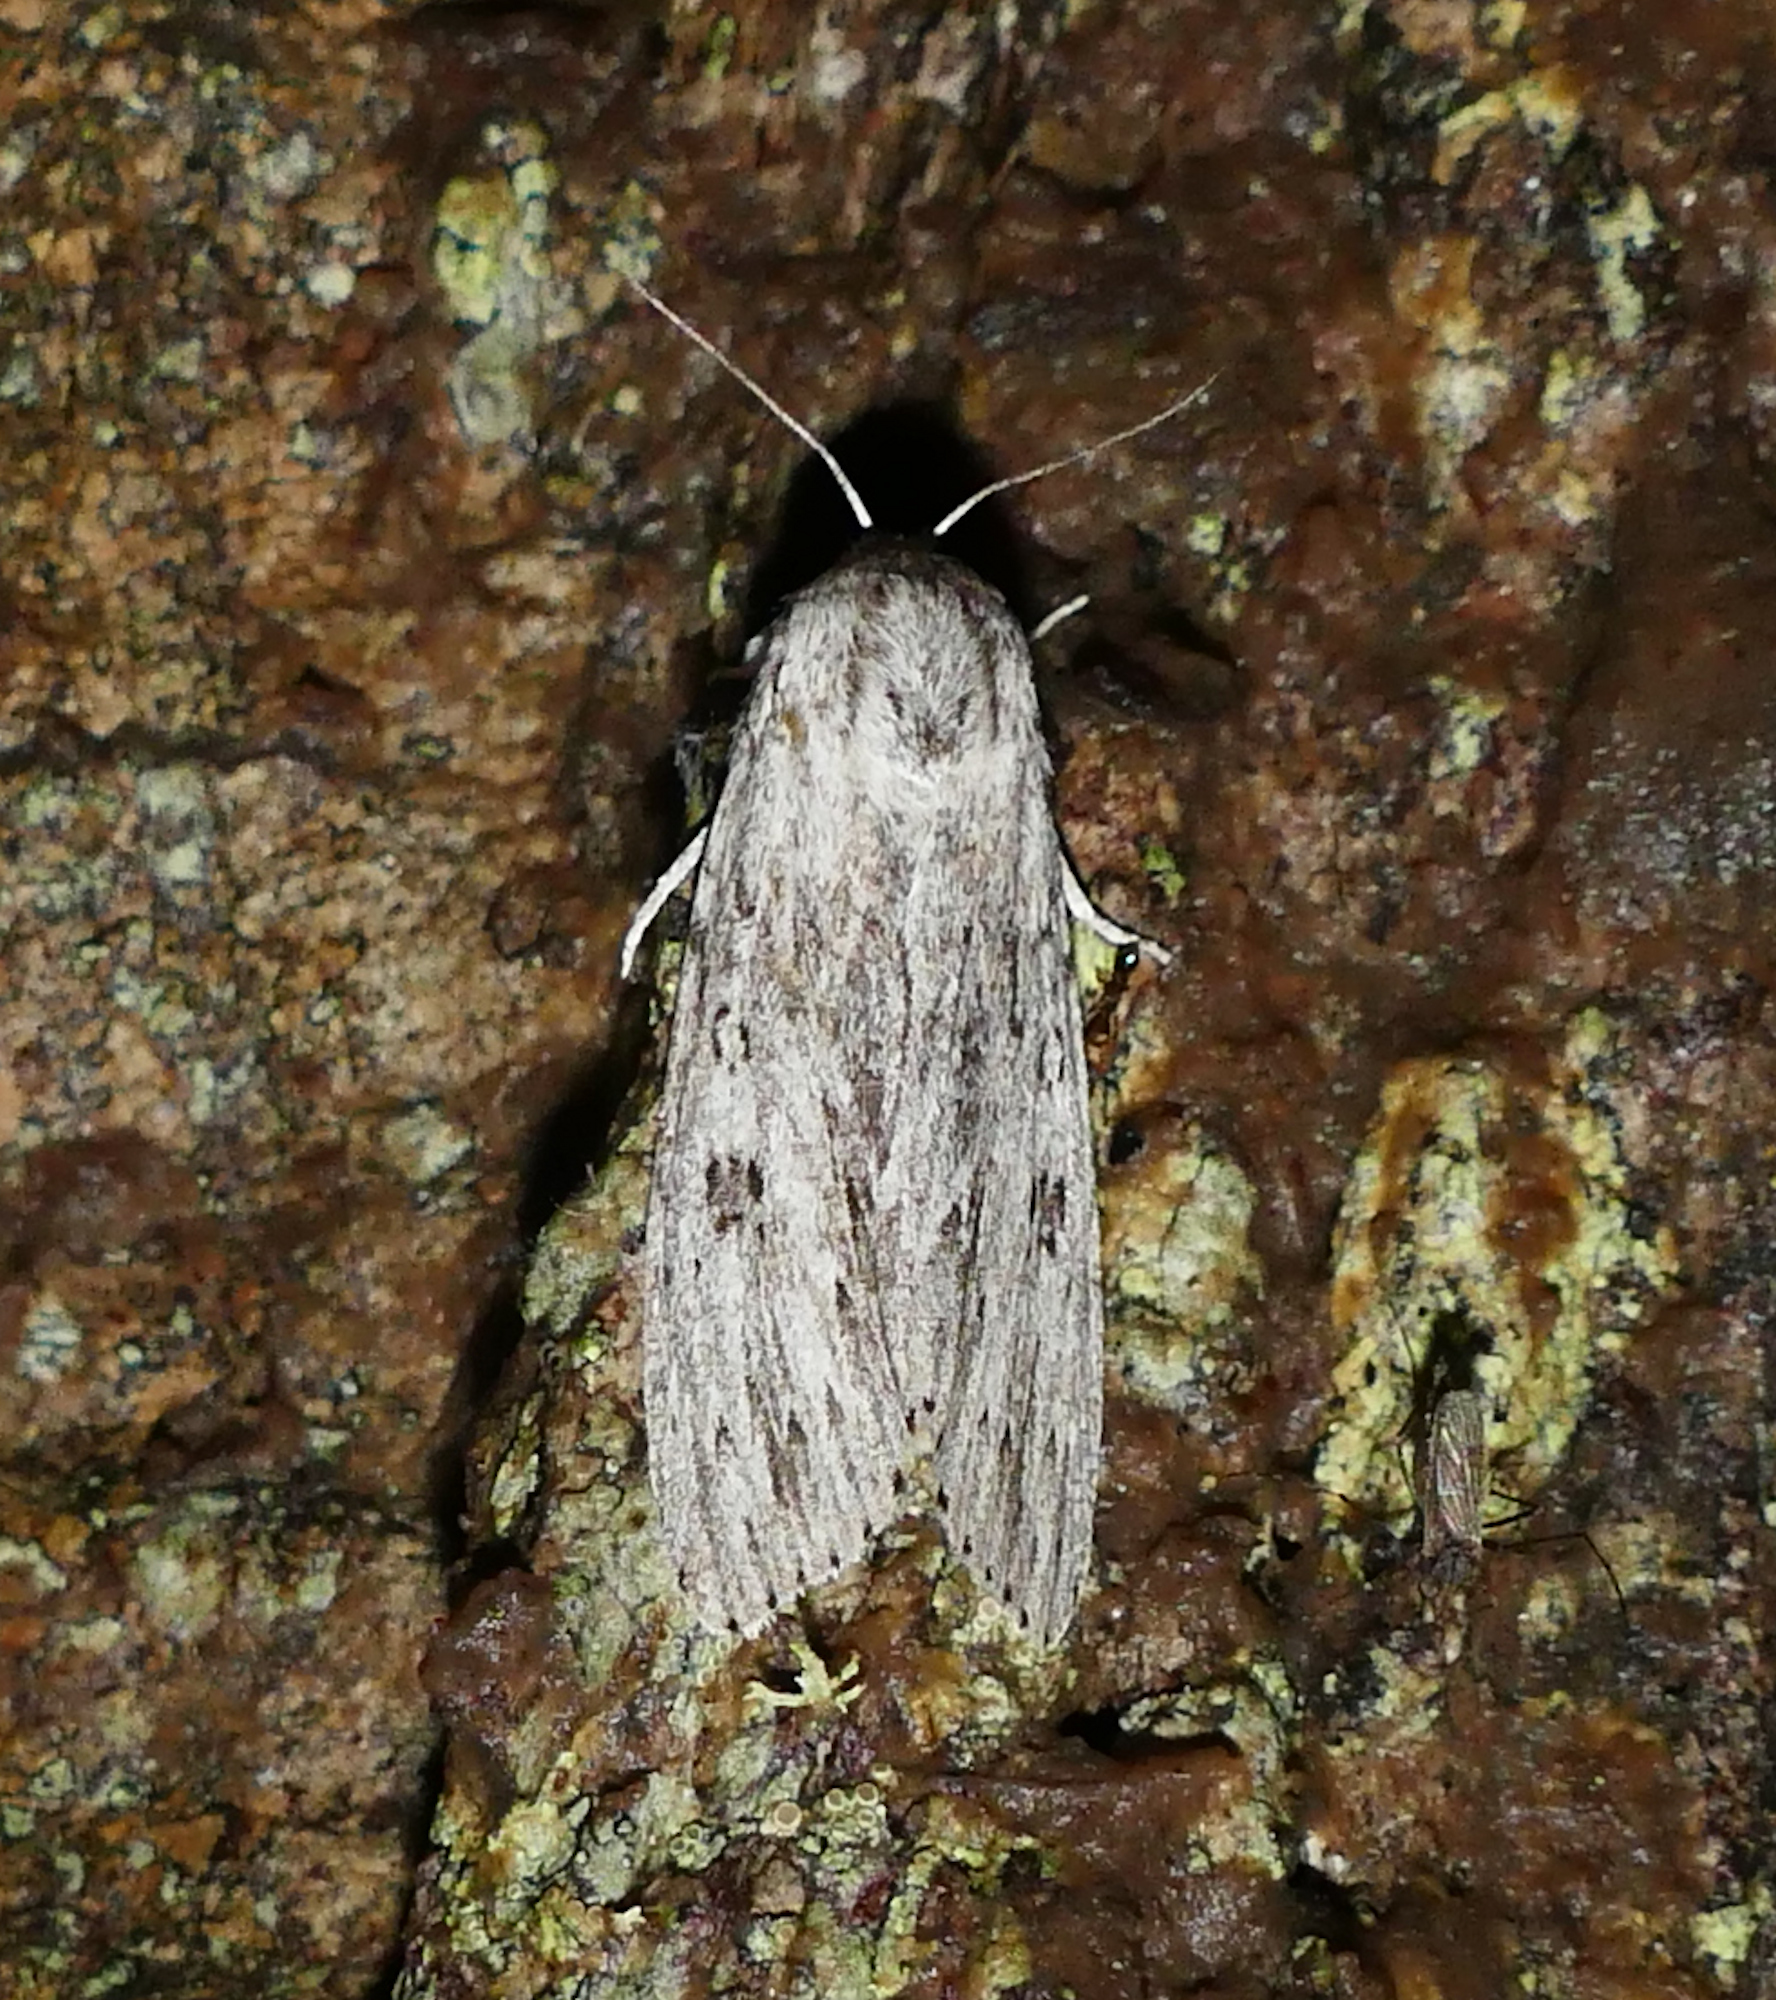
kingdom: Animalia
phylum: Arthropoda
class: Insecta
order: Lepidoptera
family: Noctuidae
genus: Acronicta
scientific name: Acronicta oblinita
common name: Smeared dagger
